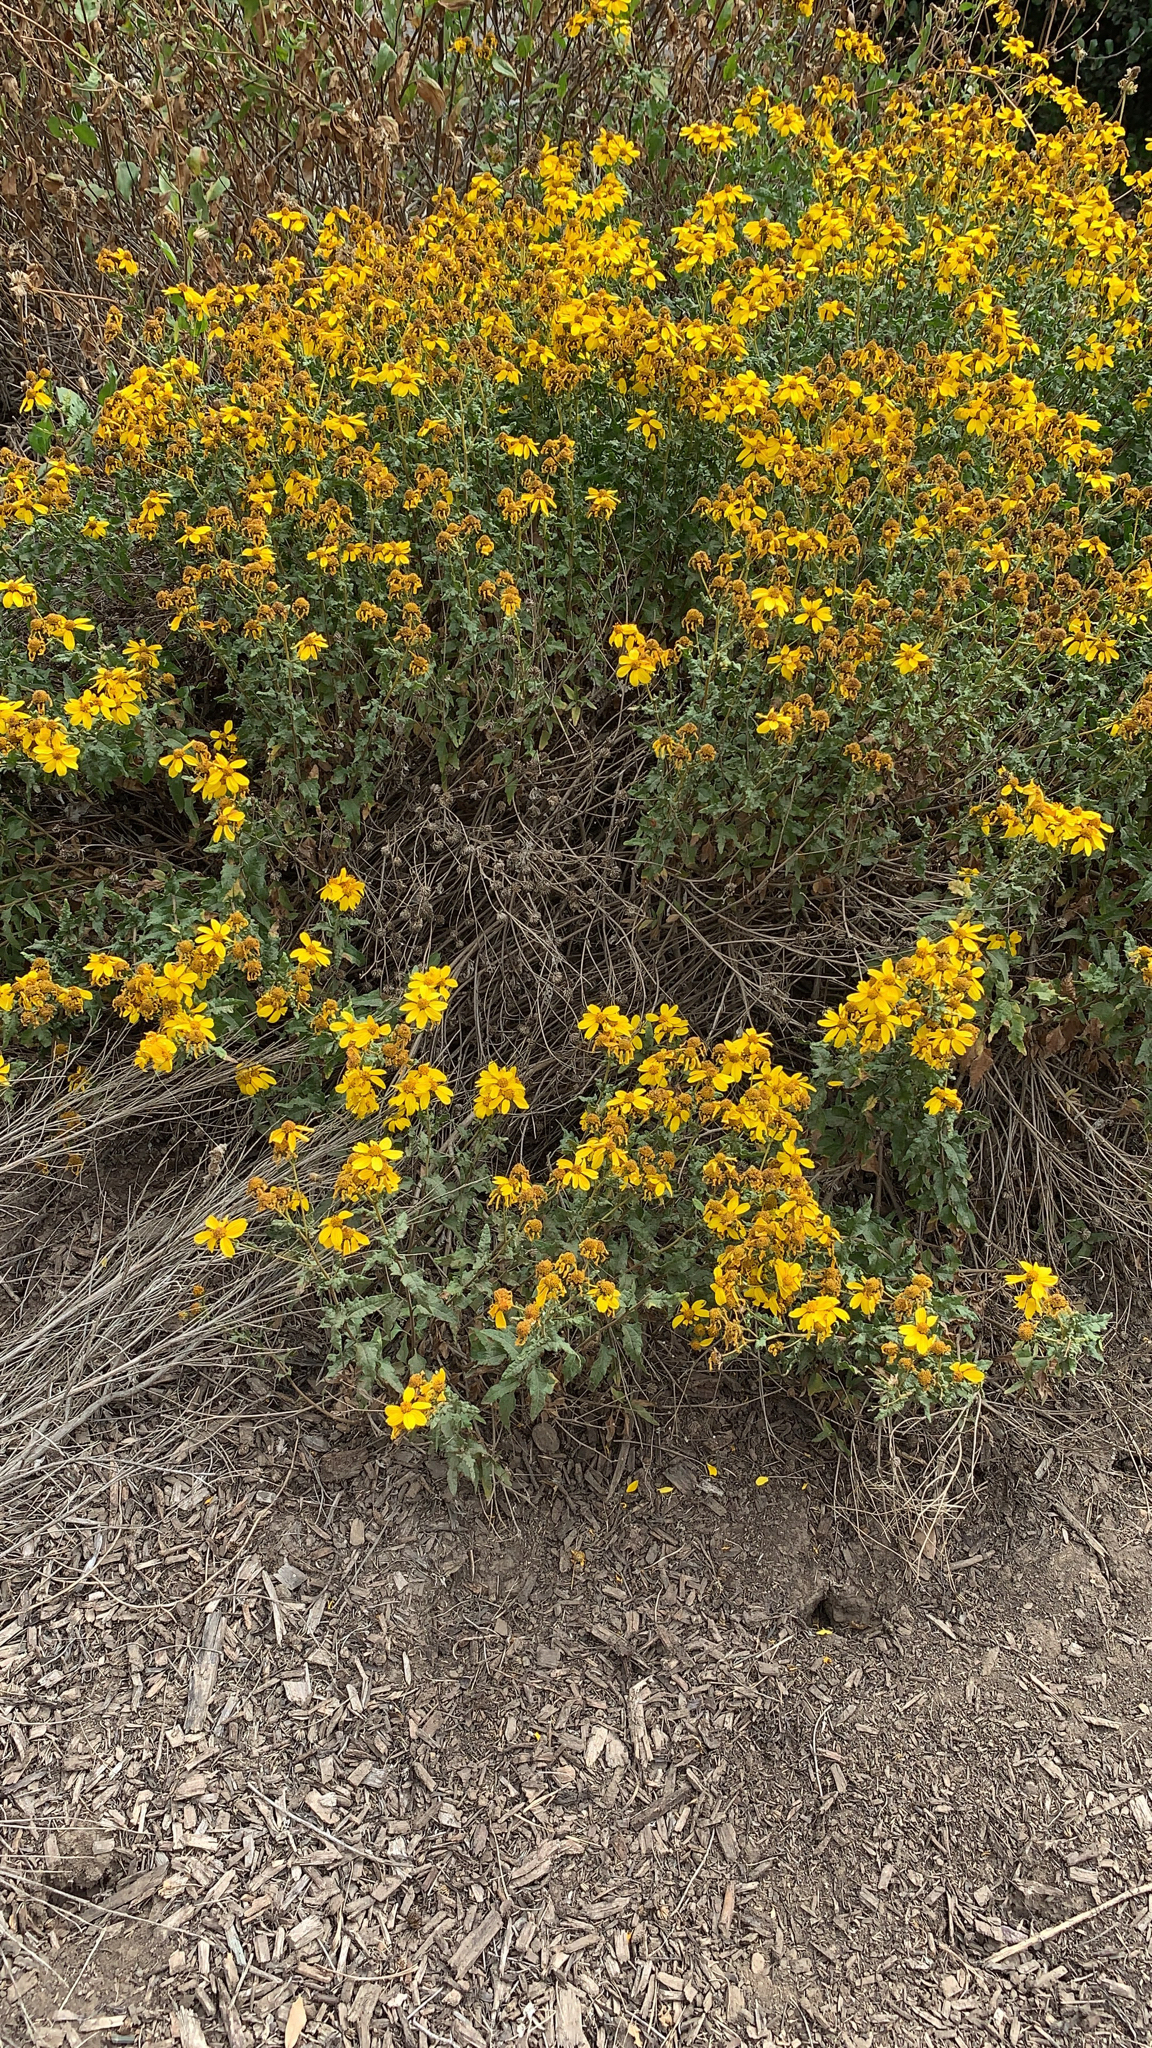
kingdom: Plantae
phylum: Tracheophyta
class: Magnoliopsida
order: Asterales
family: Asteraceae
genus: Bahiopsis
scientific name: Bahiopsis laciniata
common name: San diego county viguiera
